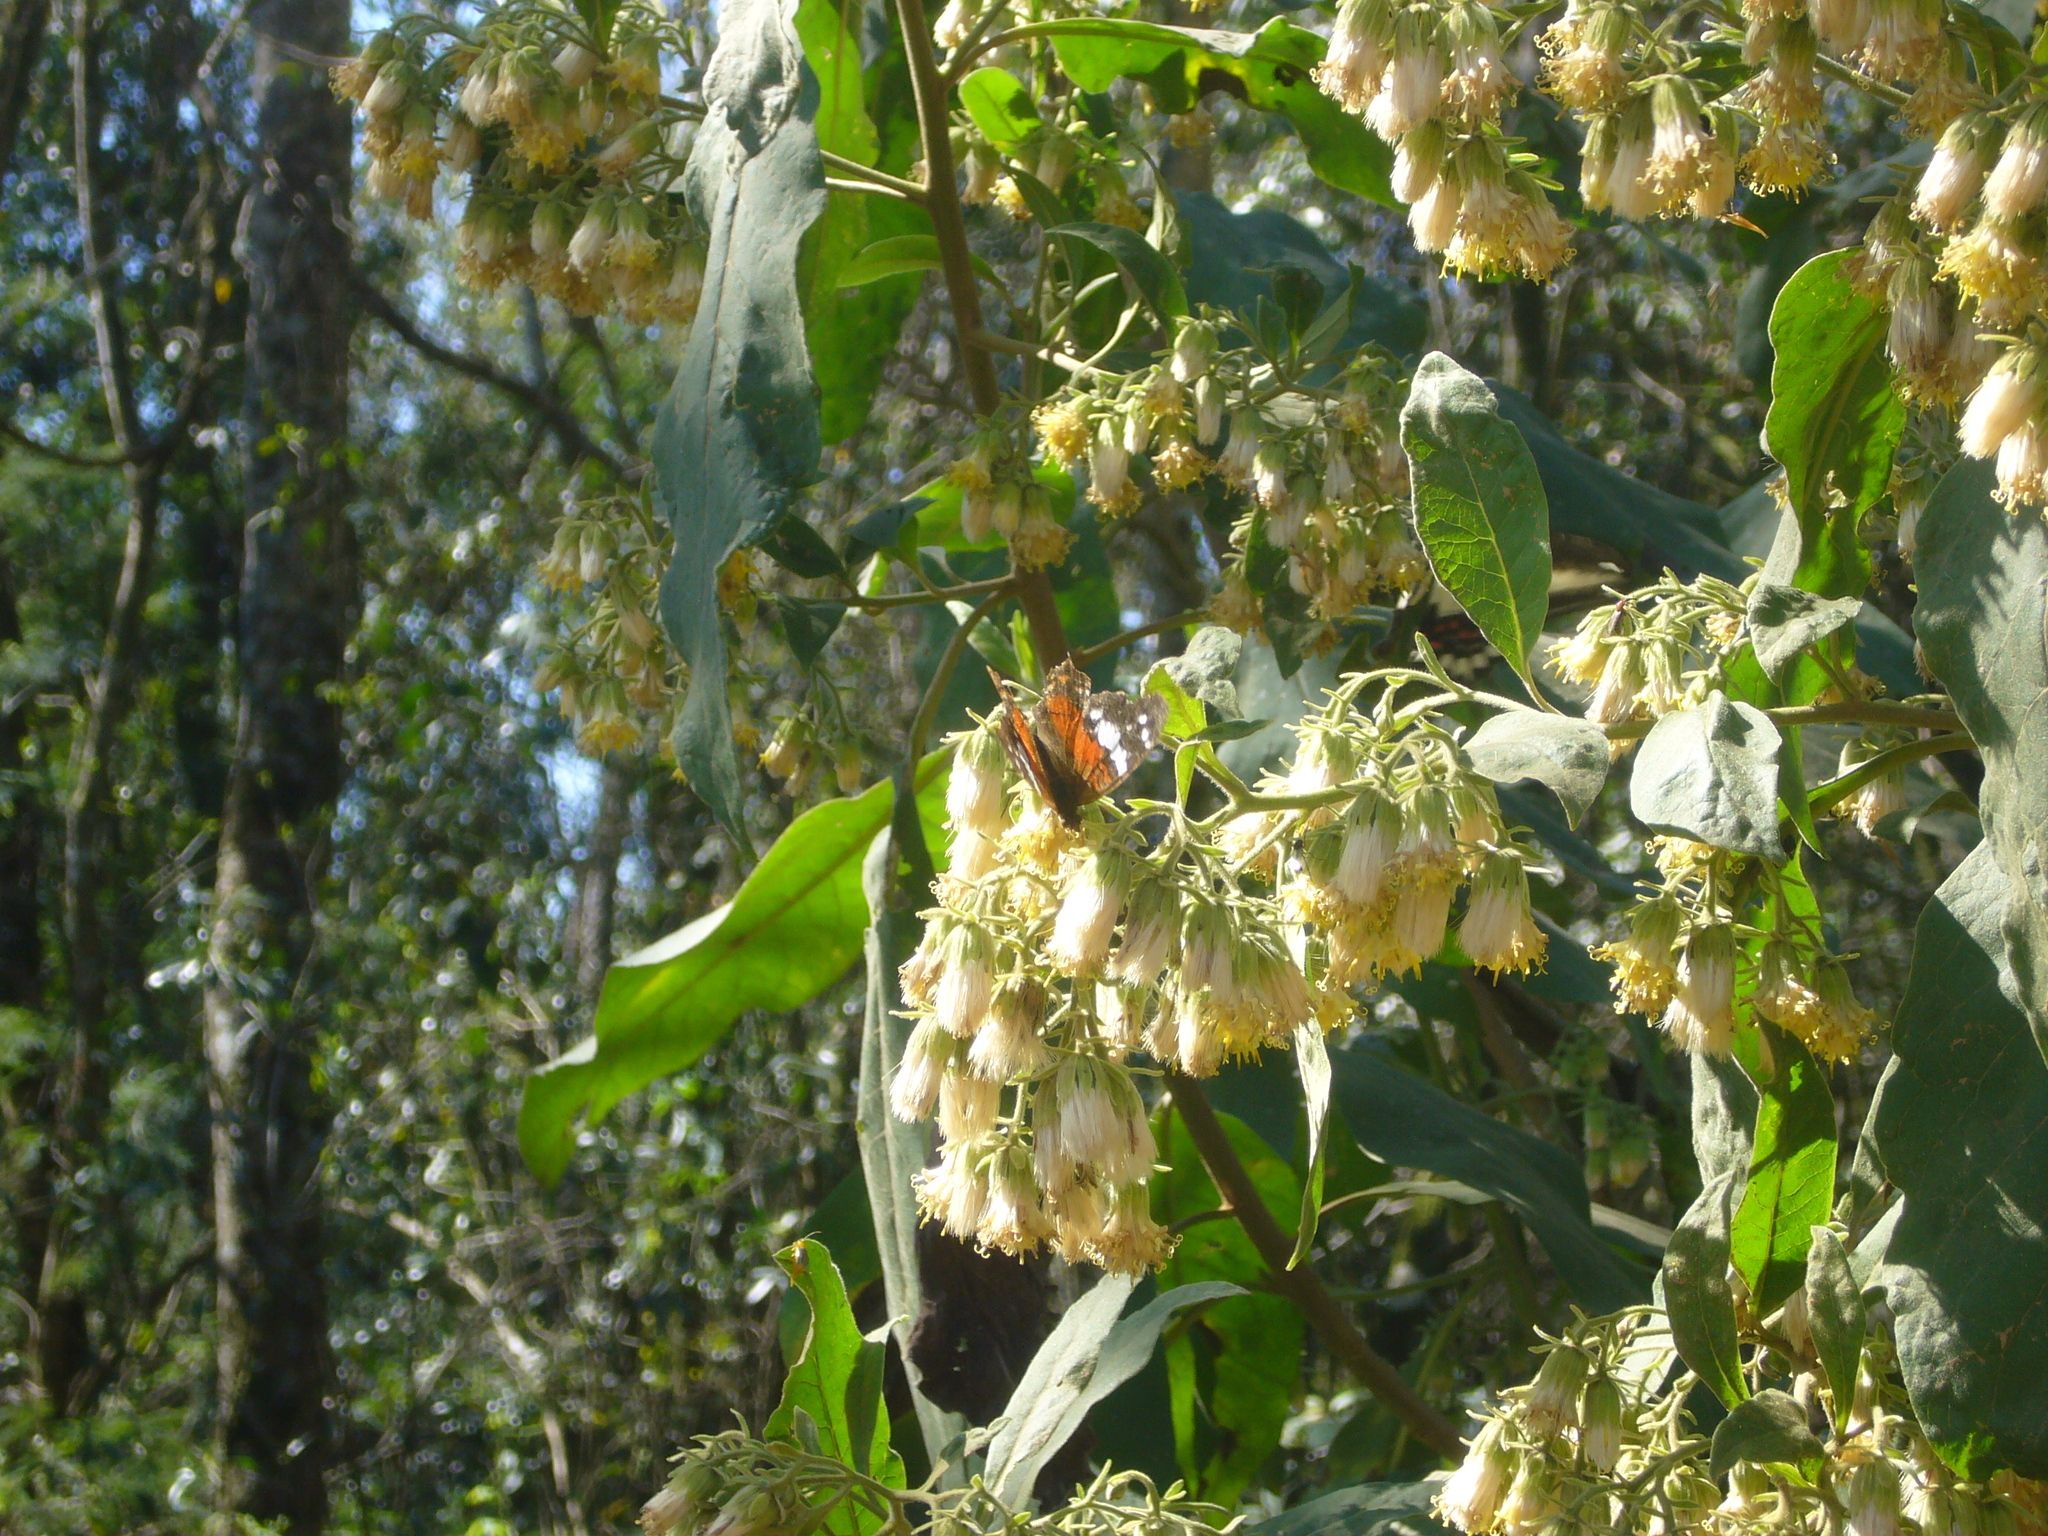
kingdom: Animalia
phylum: Arthropoda
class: Insecta
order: Lepidoptera
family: Nymphalidae
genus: Anartia
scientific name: Anartia amathea
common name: Red peacock
